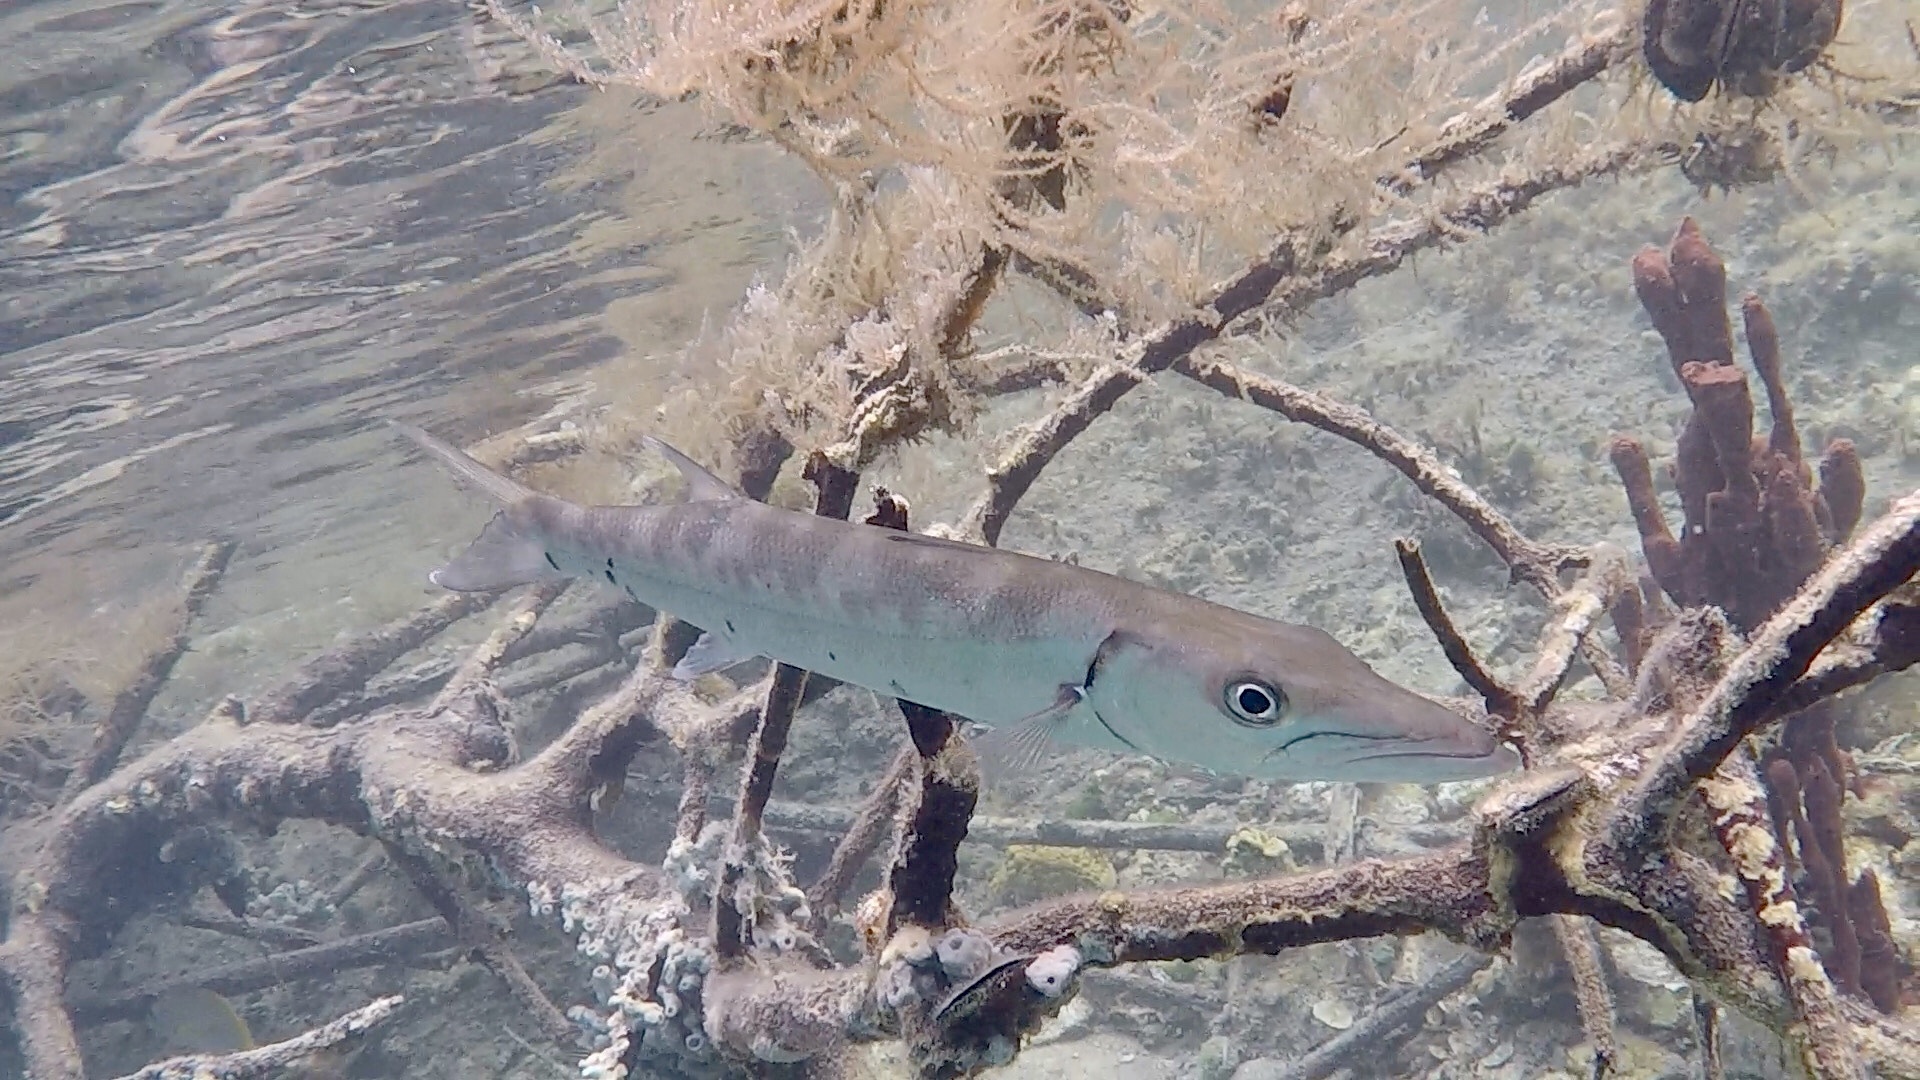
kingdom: Animalia
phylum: Chordata
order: Perciformes
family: Sphyraenidae
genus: Sphyraena
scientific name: Sphyraena barracuda
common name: Great barracuda
